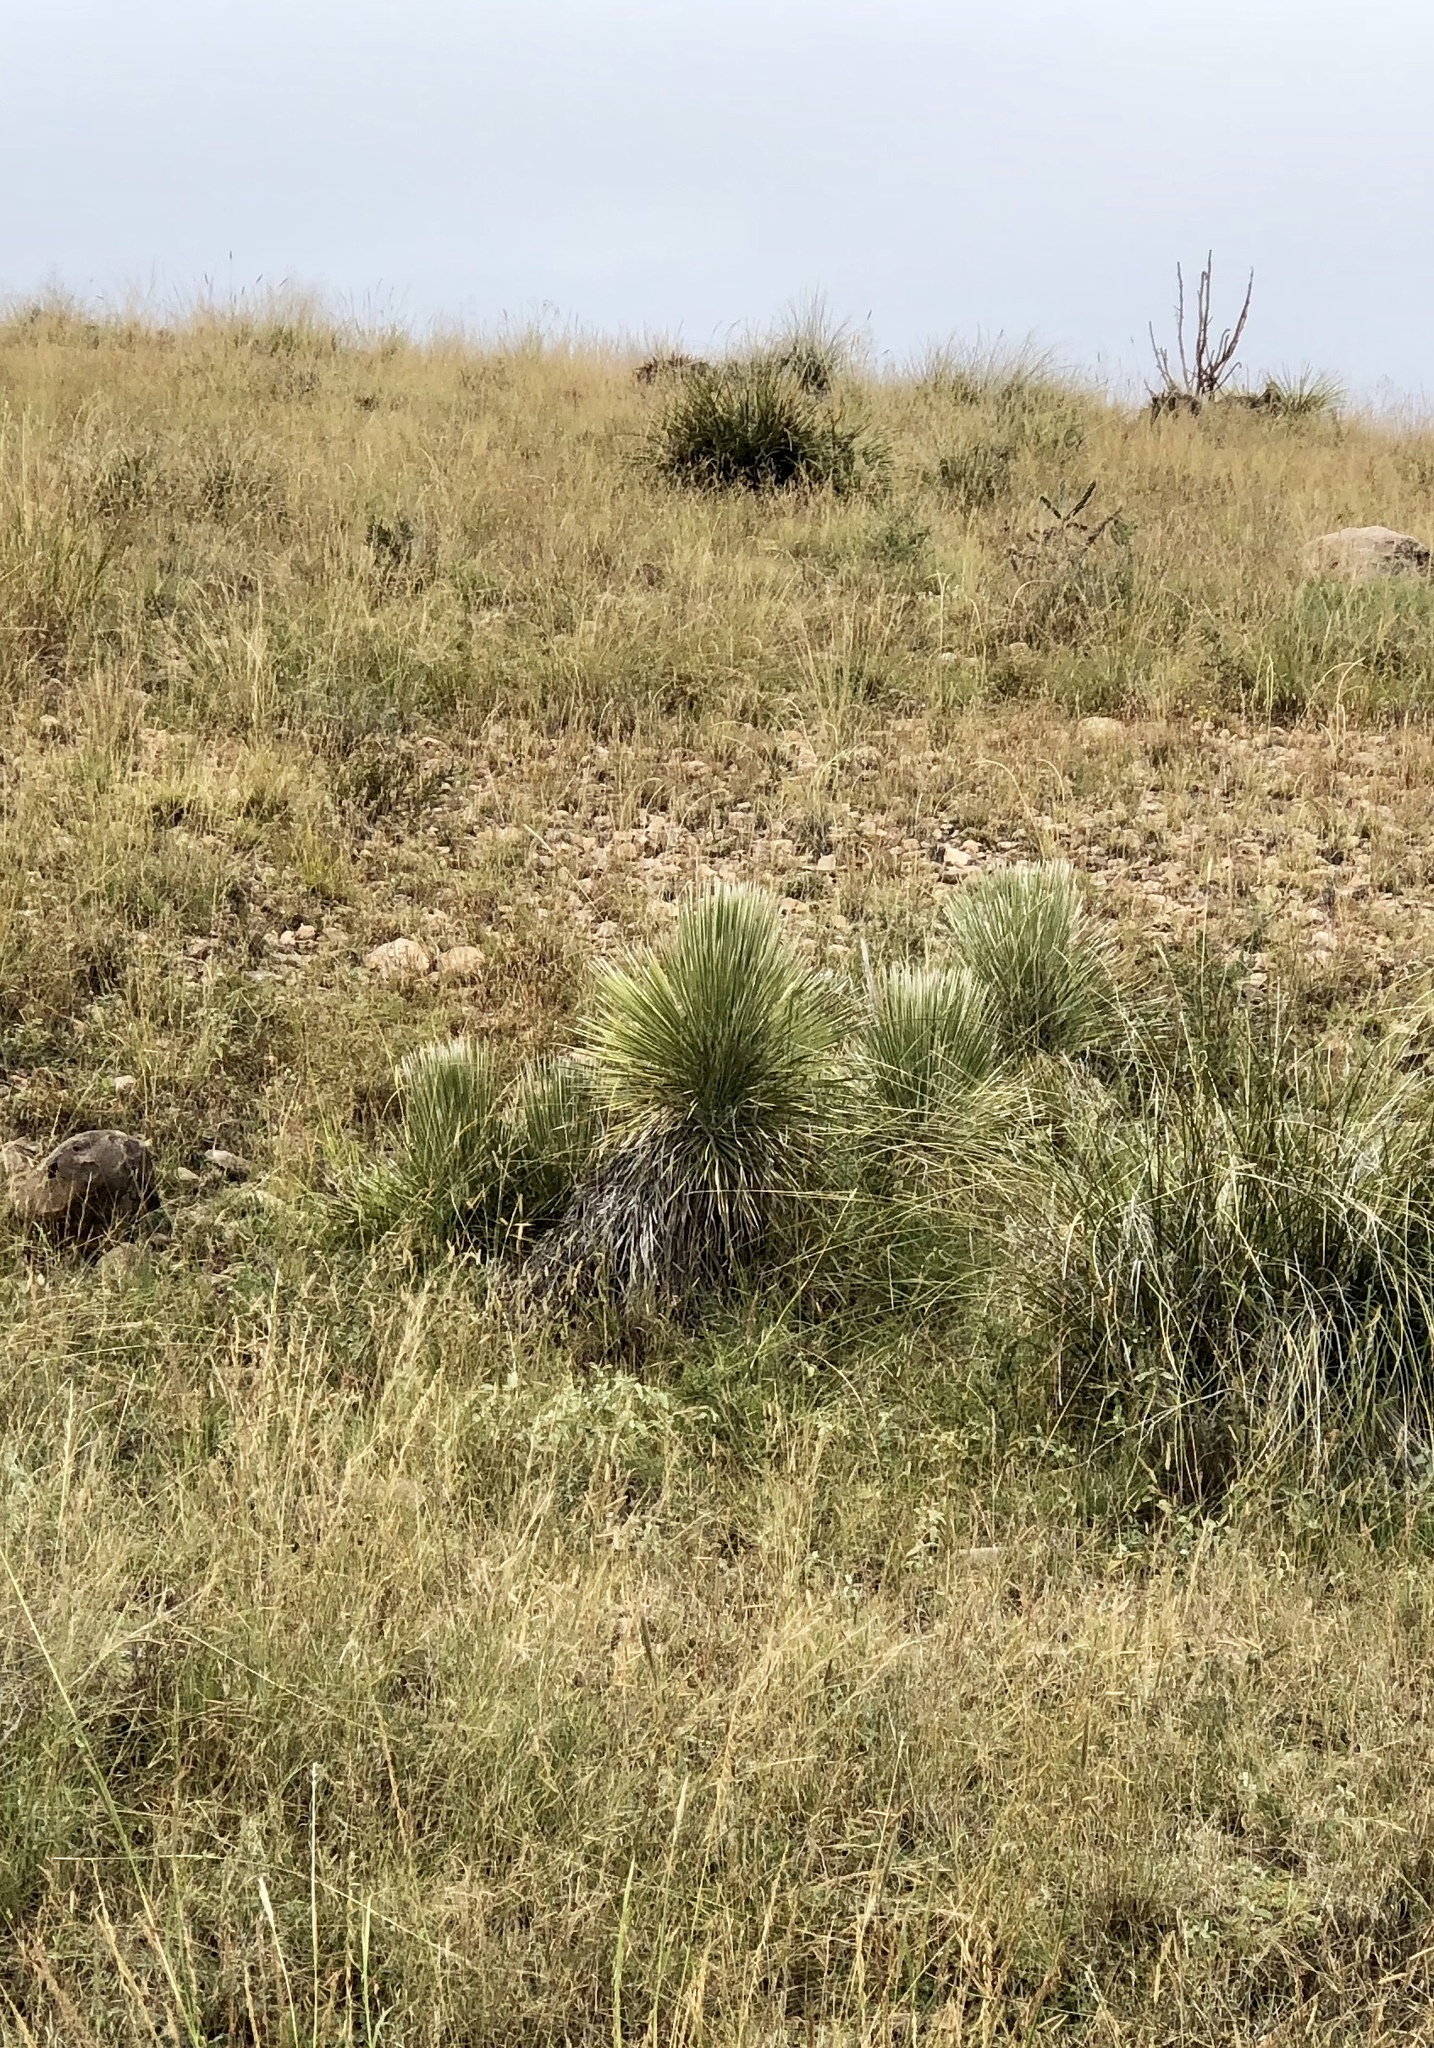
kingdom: Plantae
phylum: Tracheophyta
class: Liliopsida
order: Asparagales
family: Asparagaceae
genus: Yucca
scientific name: Yucca elata
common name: Palmella
